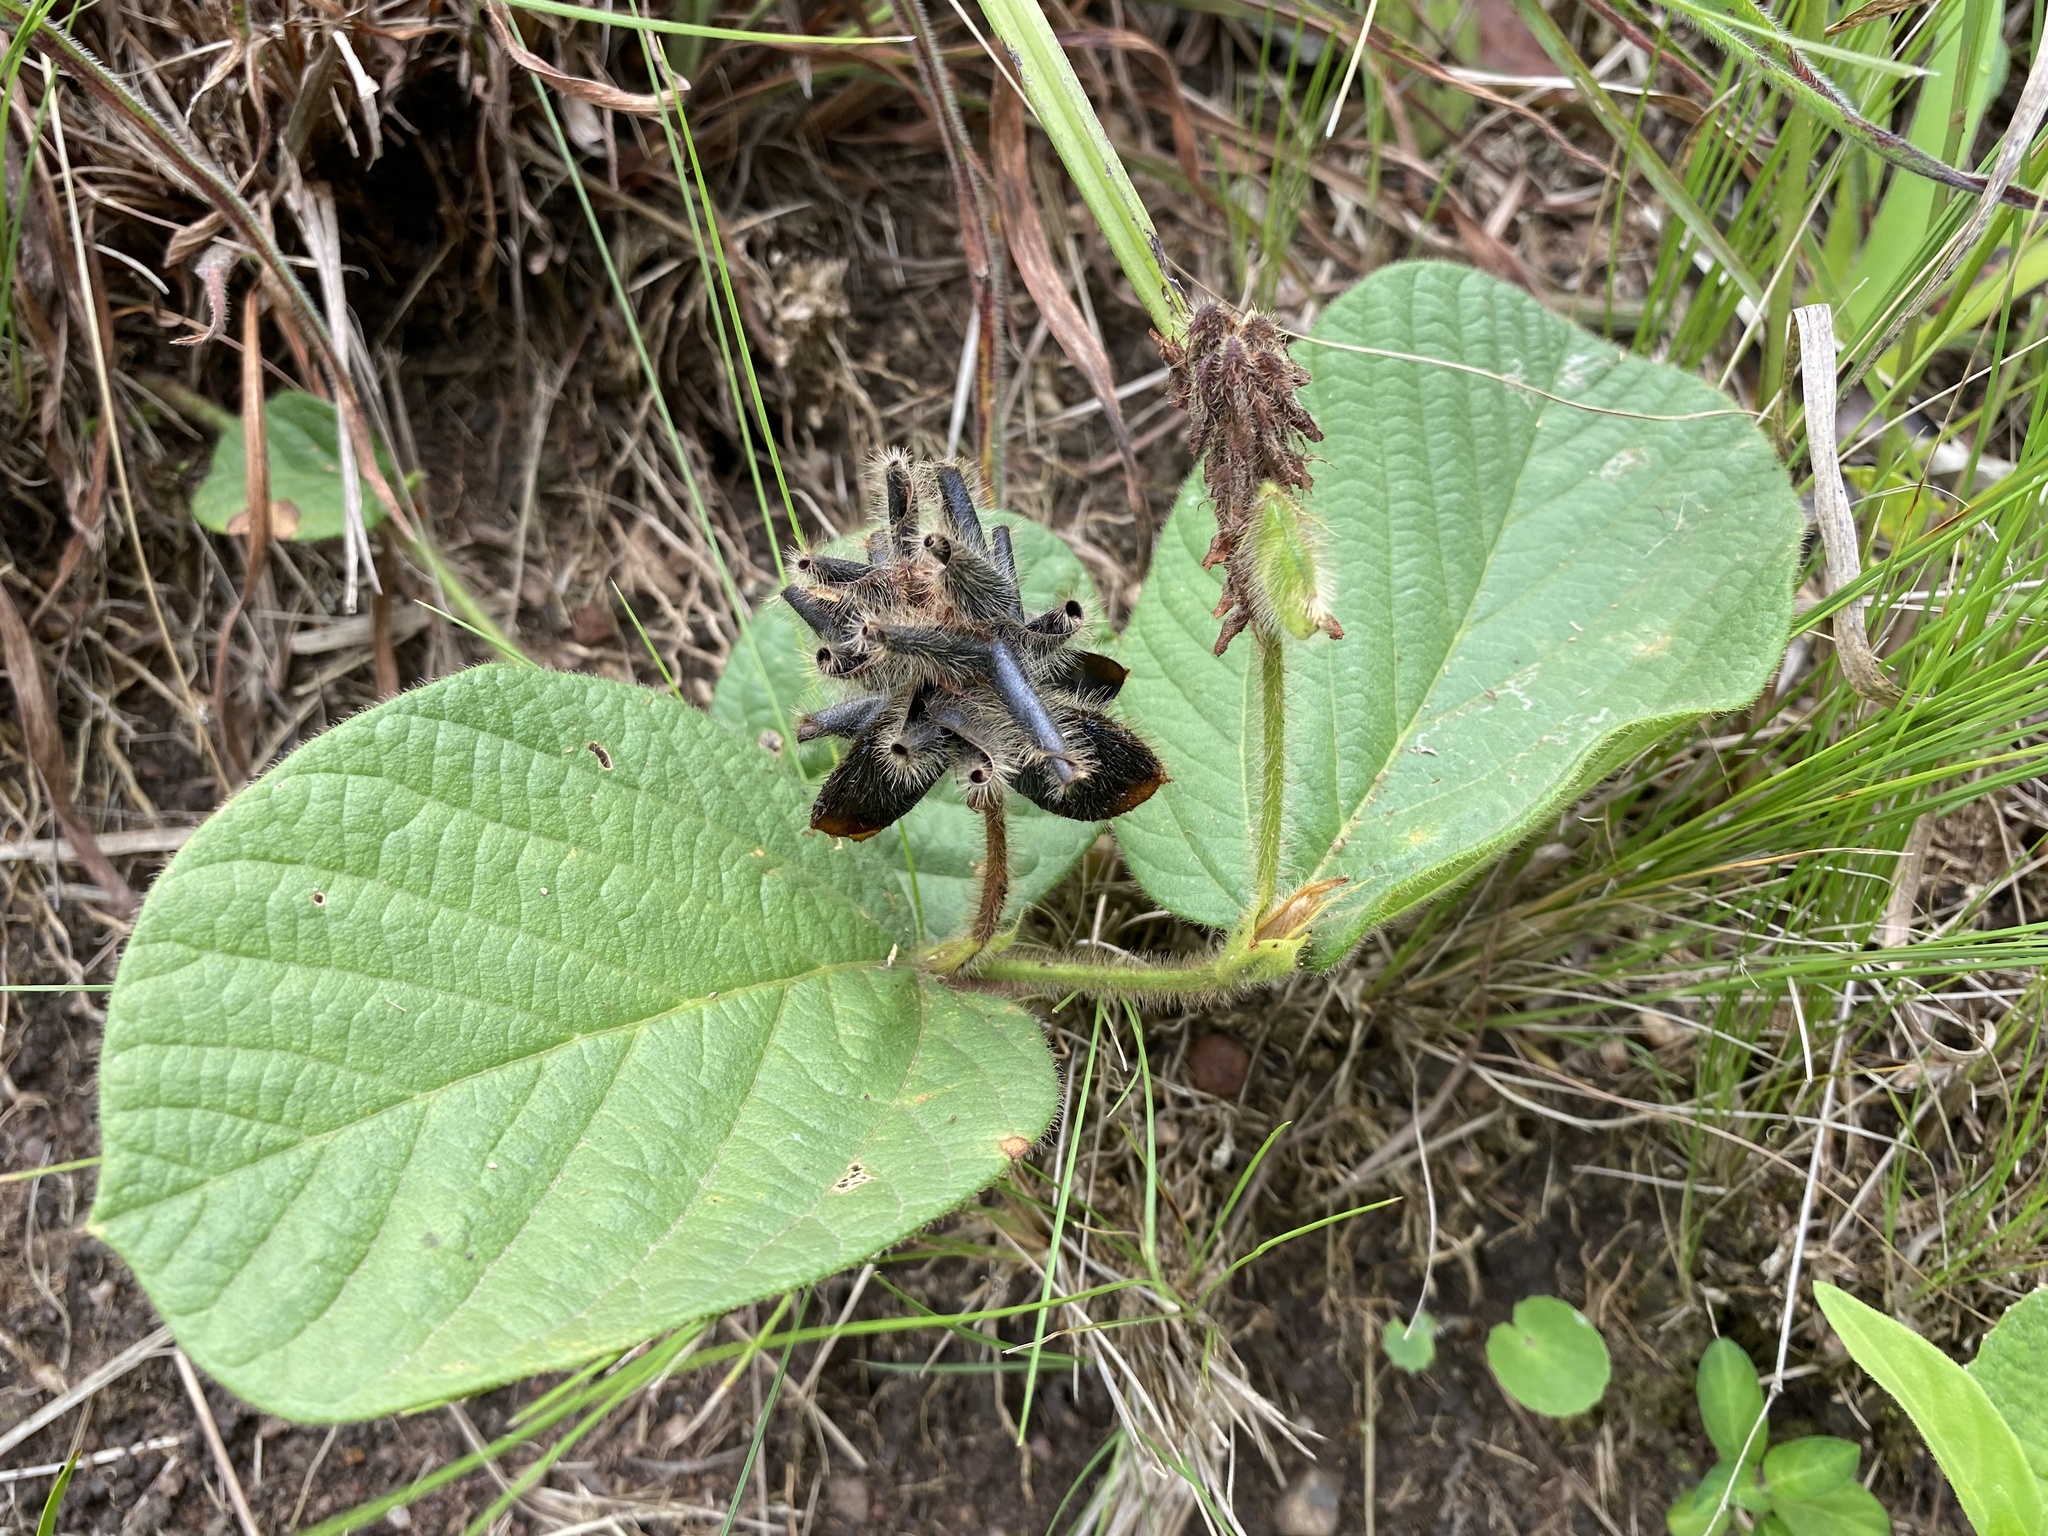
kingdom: Plantae
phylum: Tracheophyta
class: Magnoliopsida
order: Fabales
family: Fabaceae
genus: Eriosema
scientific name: Eriosema cordatum
